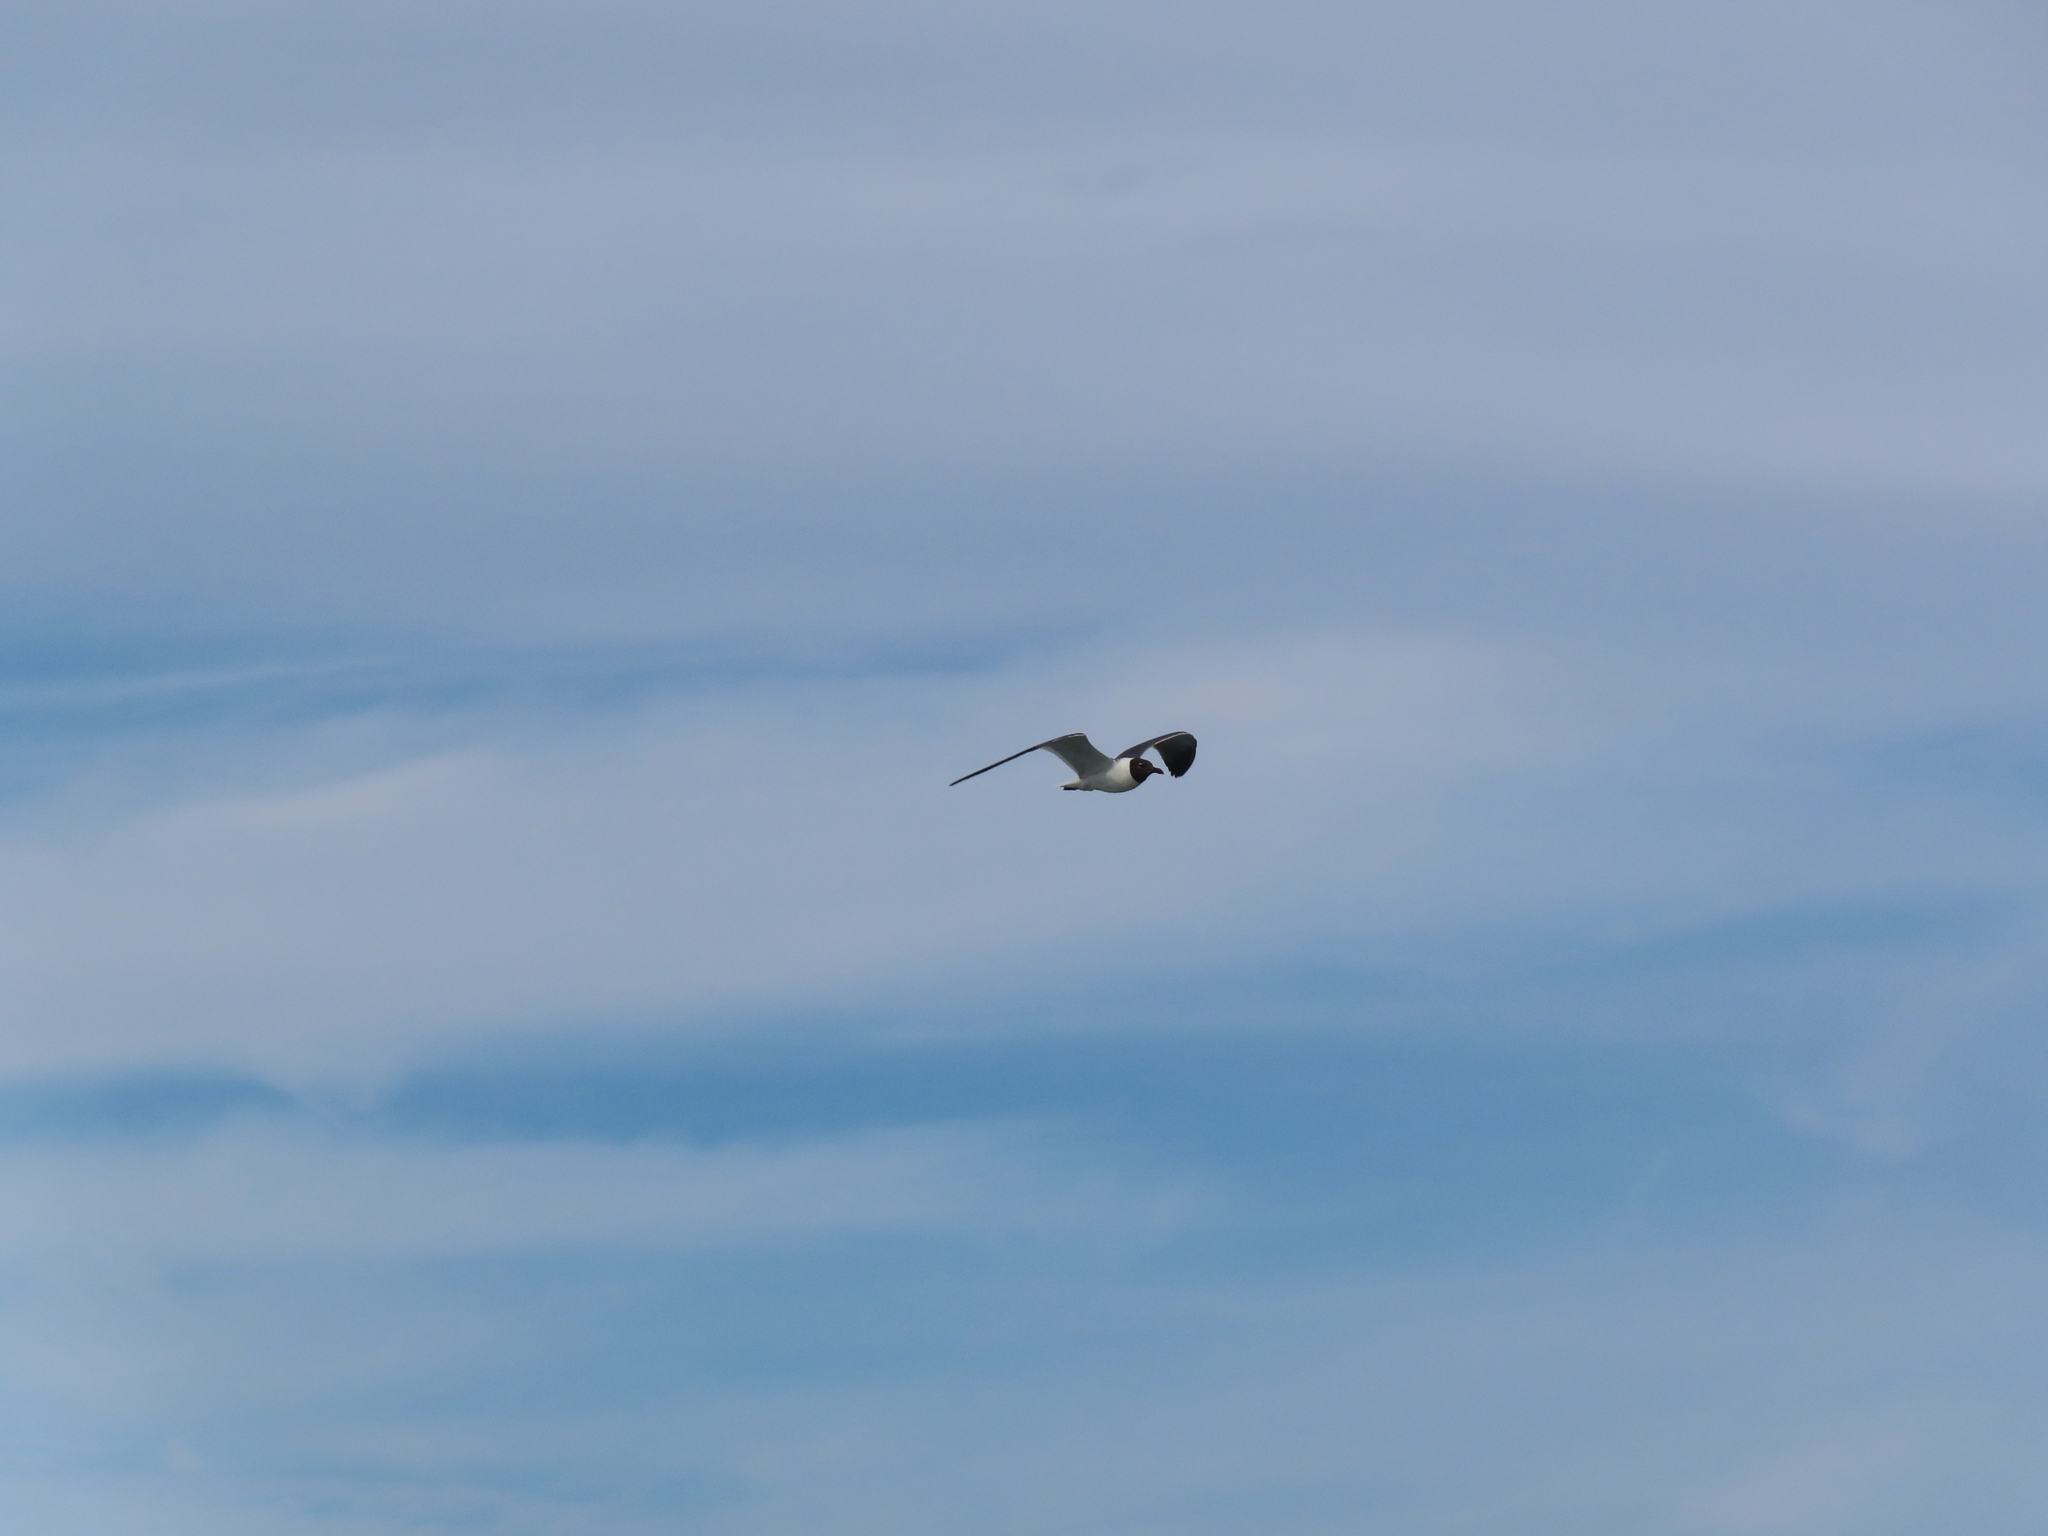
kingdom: Animalia
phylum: Chordata
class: Aves
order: Charadriiformes
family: Laridae
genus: Leucophaeus
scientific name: Leucophaeus atricilla
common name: Laughing gull
